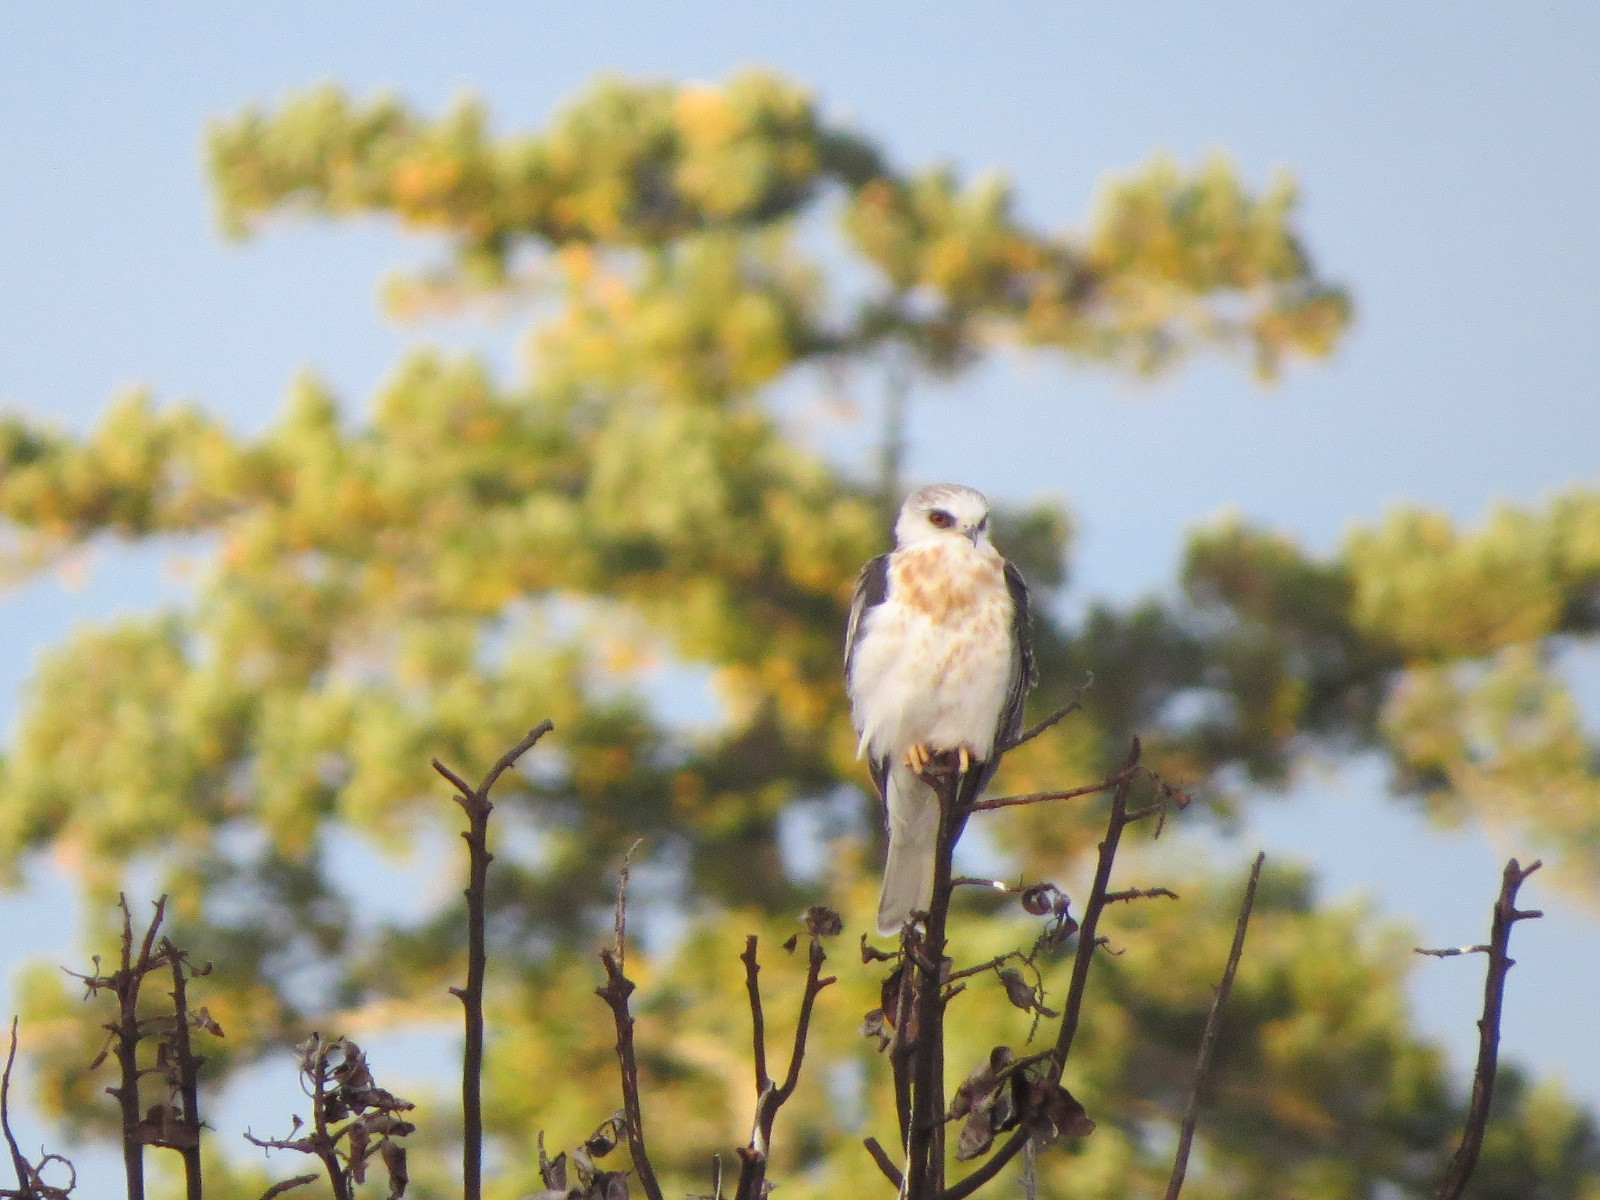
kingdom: Animalia
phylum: Chordata
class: Aves
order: Accipitriformes
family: Accipitridae
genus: Elanus
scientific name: Elanus leucurus
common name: White-tailed kite
